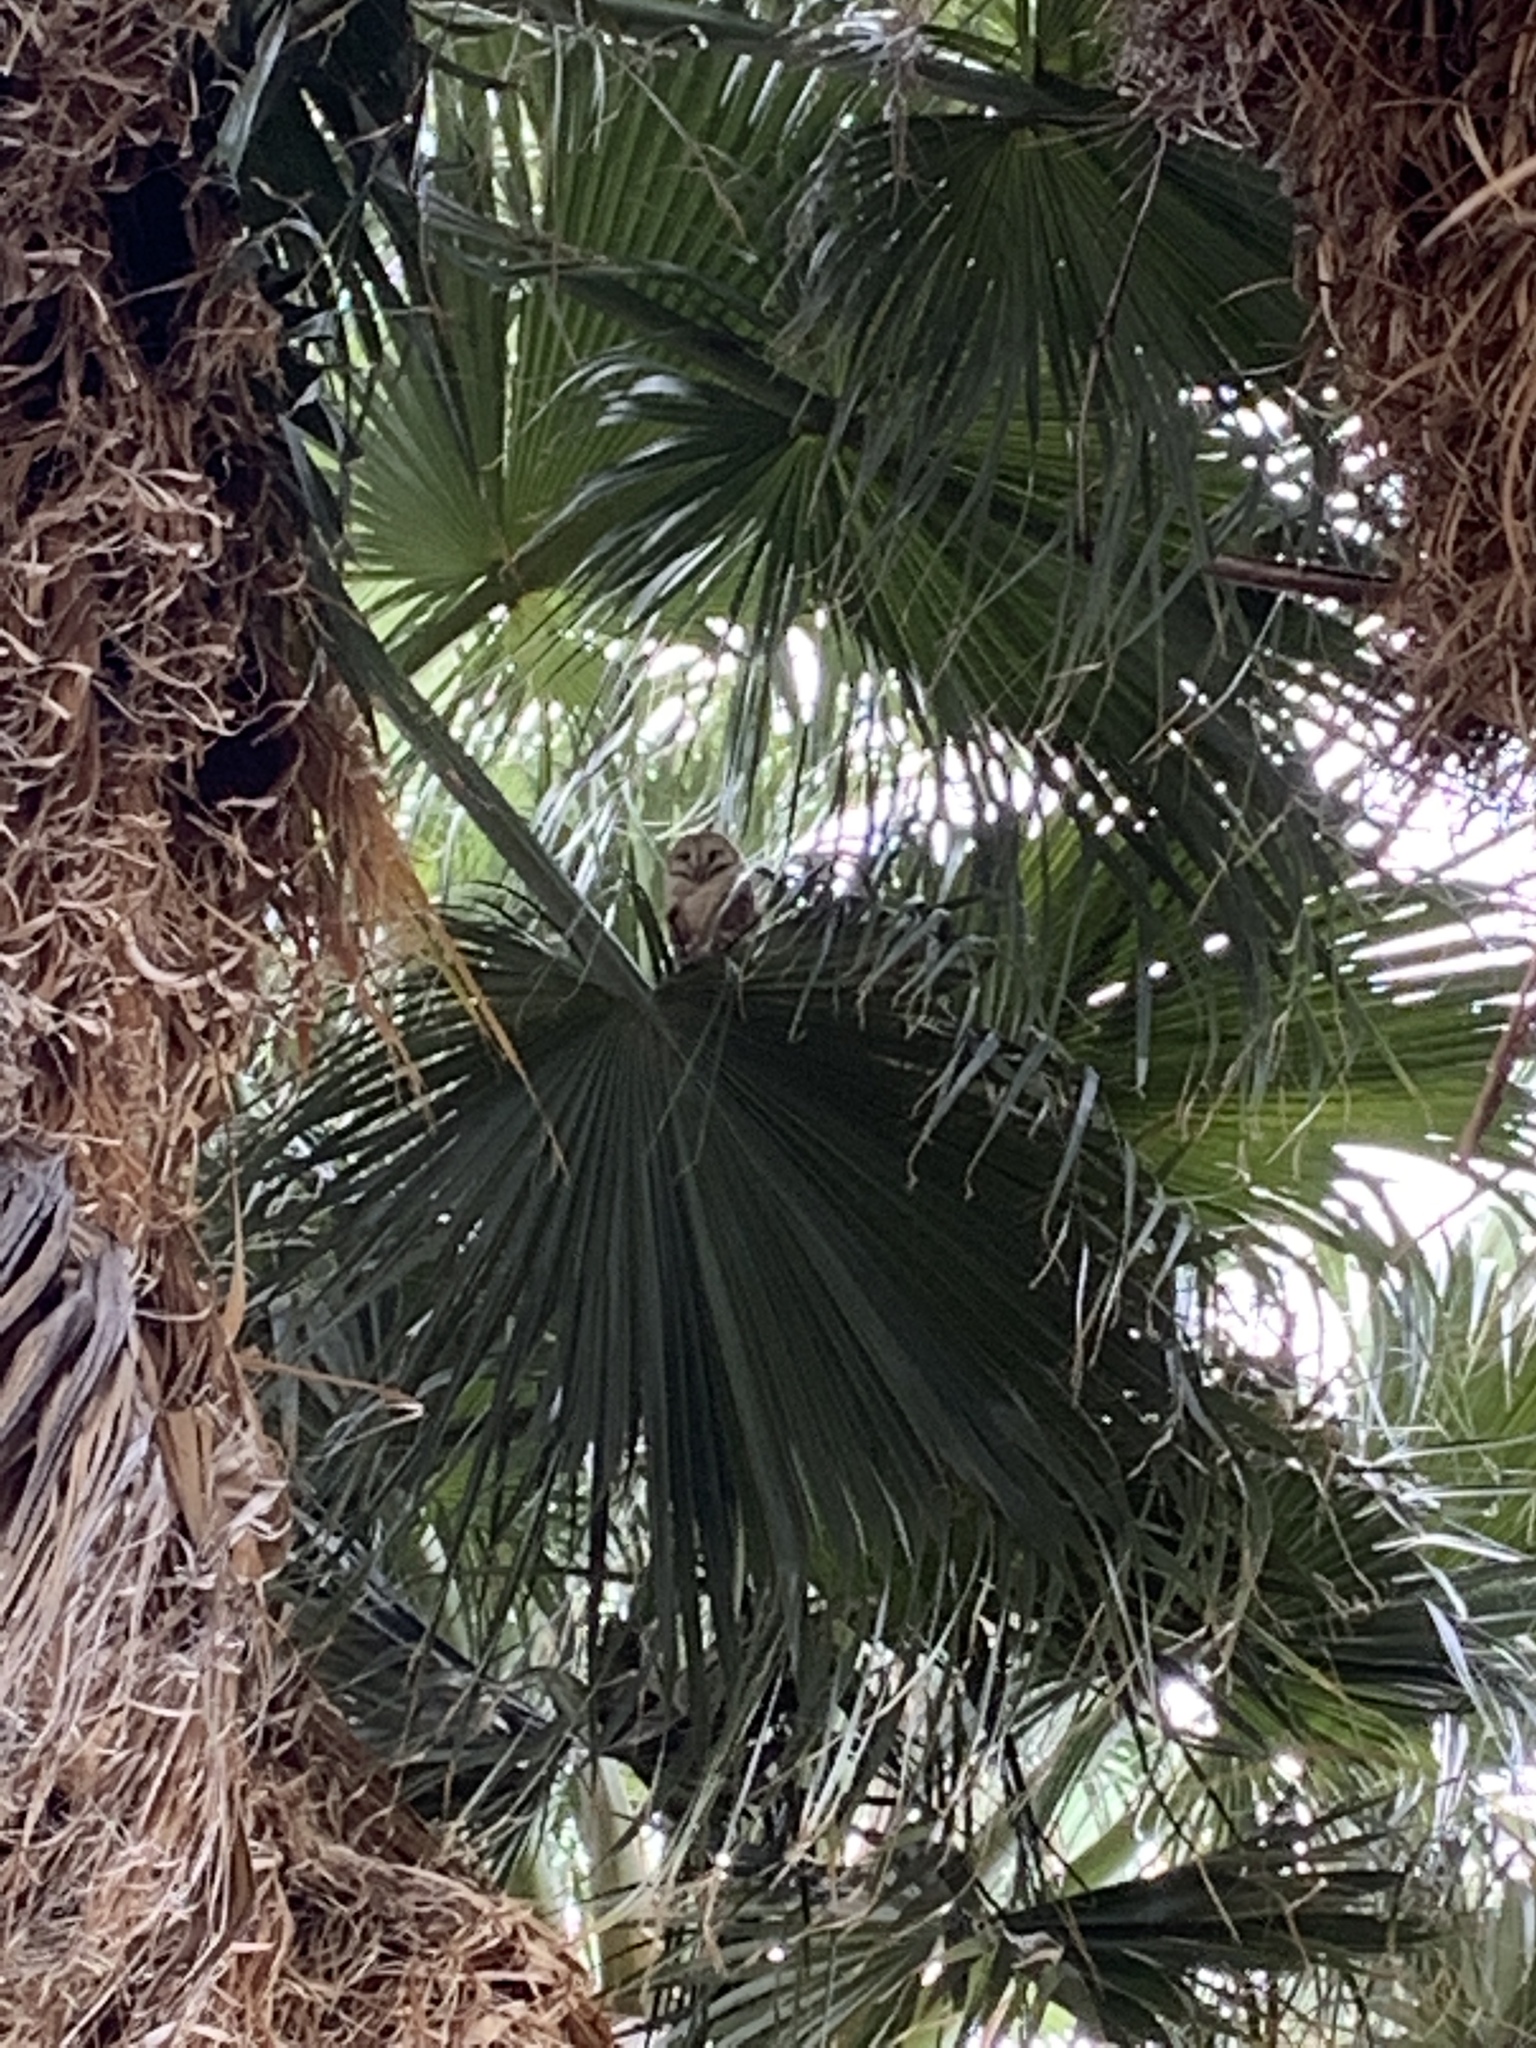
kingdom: Animalia
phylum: Chordata
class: Aves
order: Strigiformes
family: Tytonidae
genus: Tyto
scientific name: Tyto alba
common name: Barn owl
